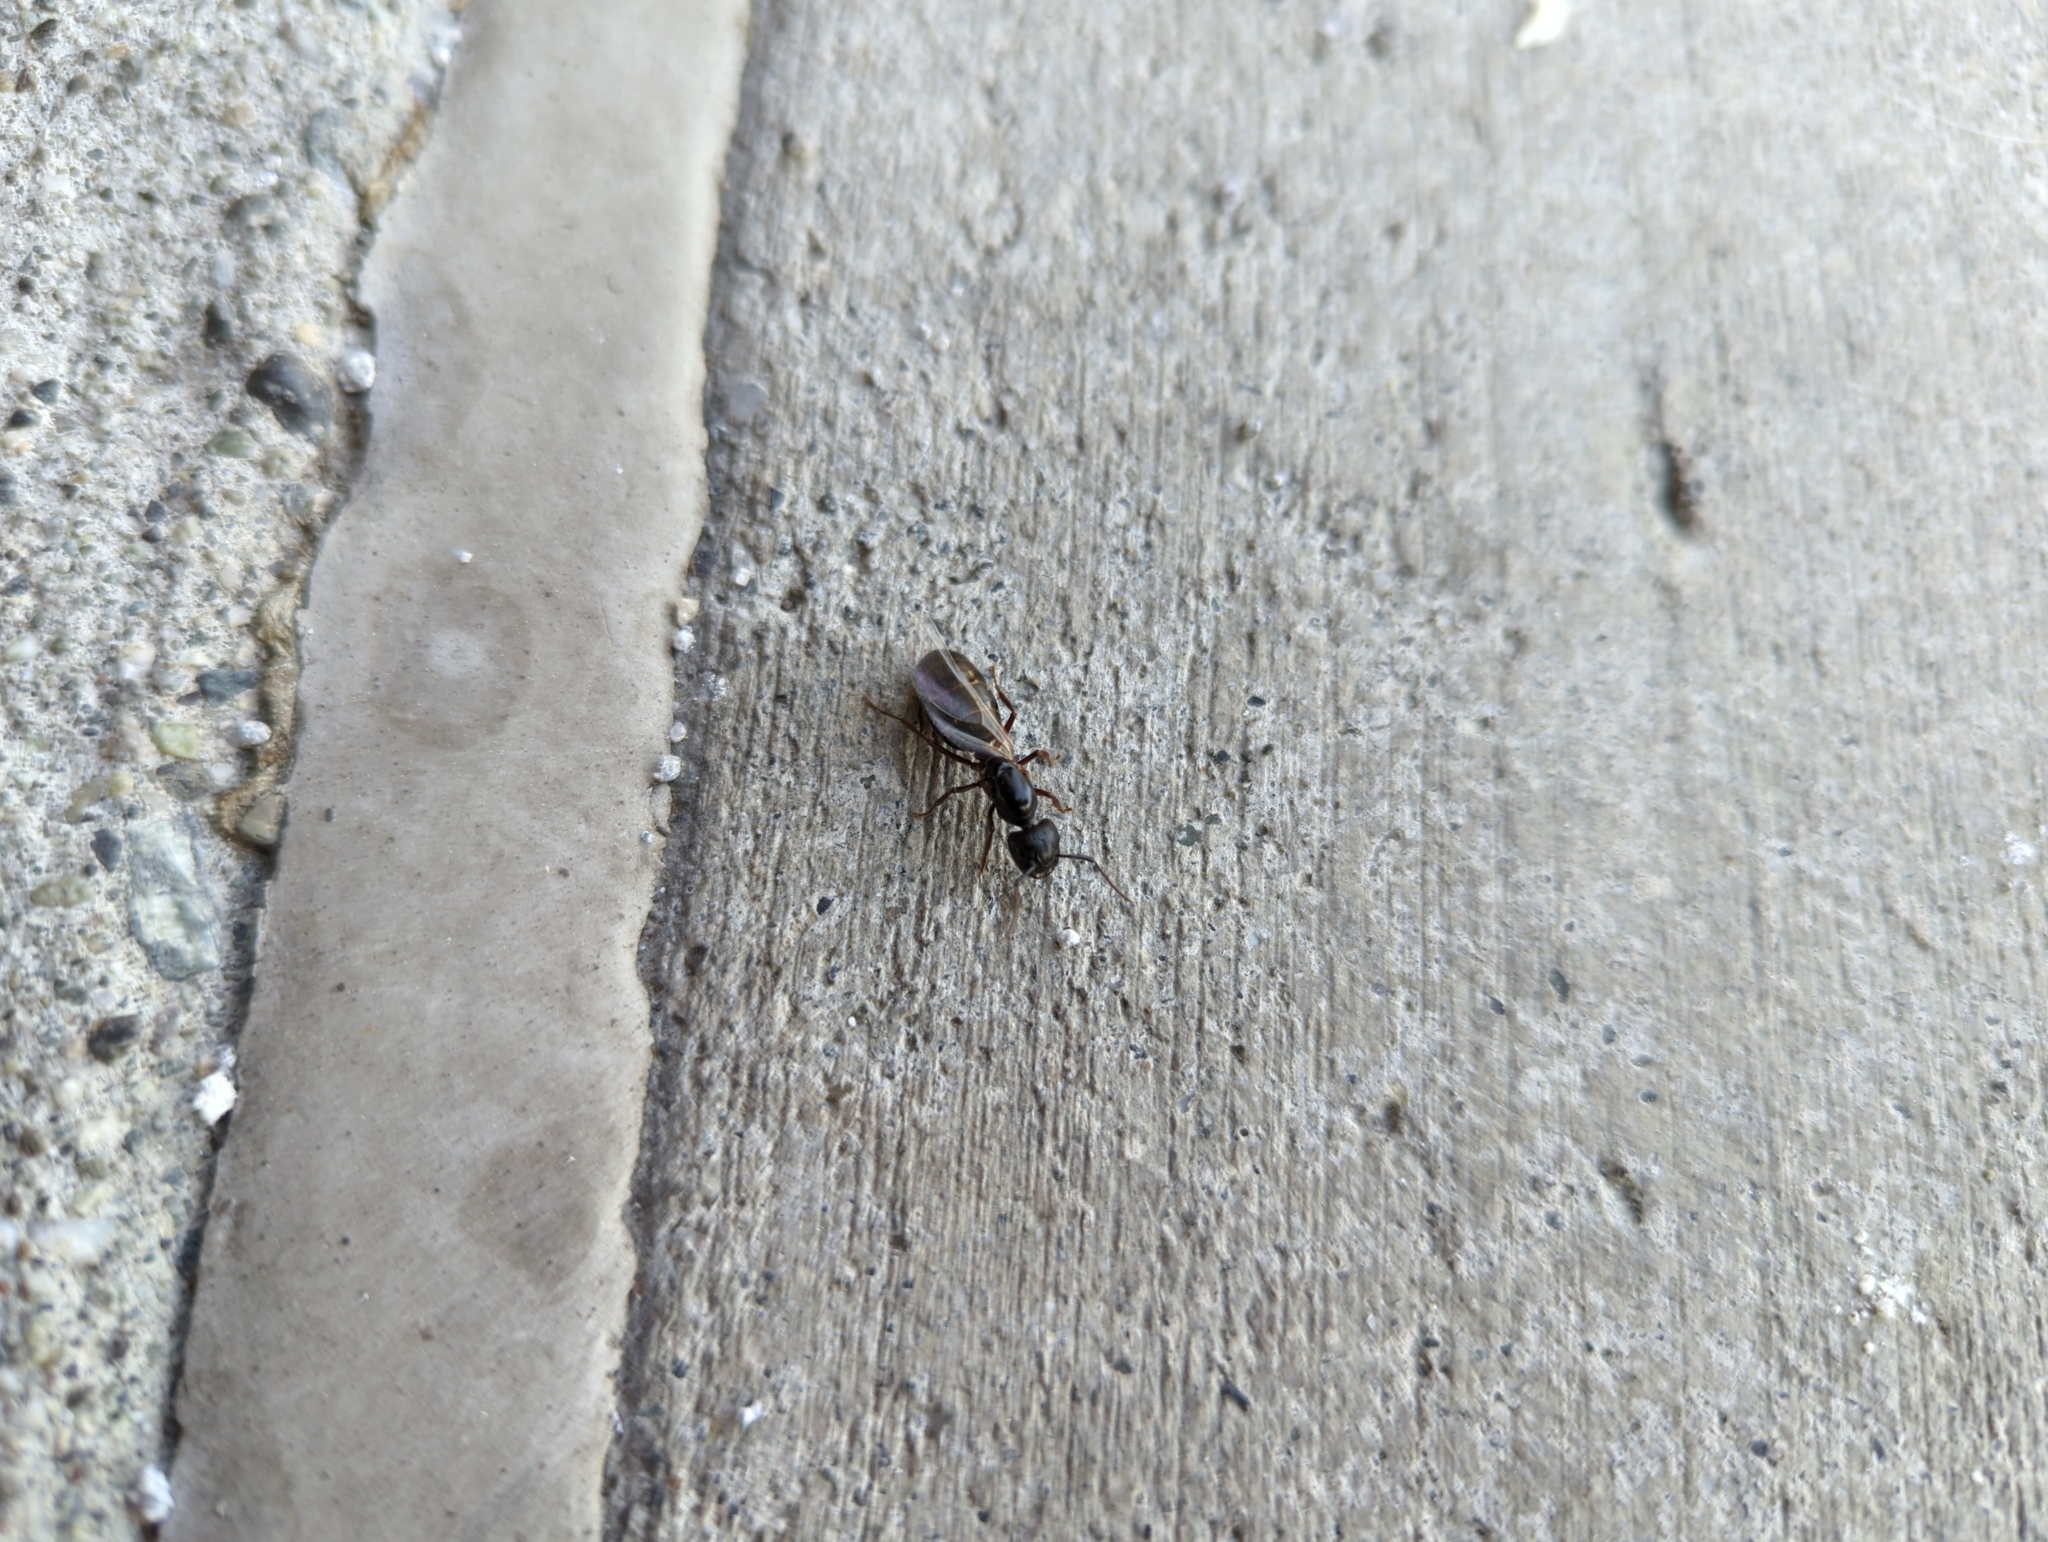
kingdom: Animalia
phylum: Arthropoda
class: Insecta
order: Hymenoptera
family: Formicidae
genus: Camponotus
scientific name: Camponotus herculeanus
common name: Hercules ant
